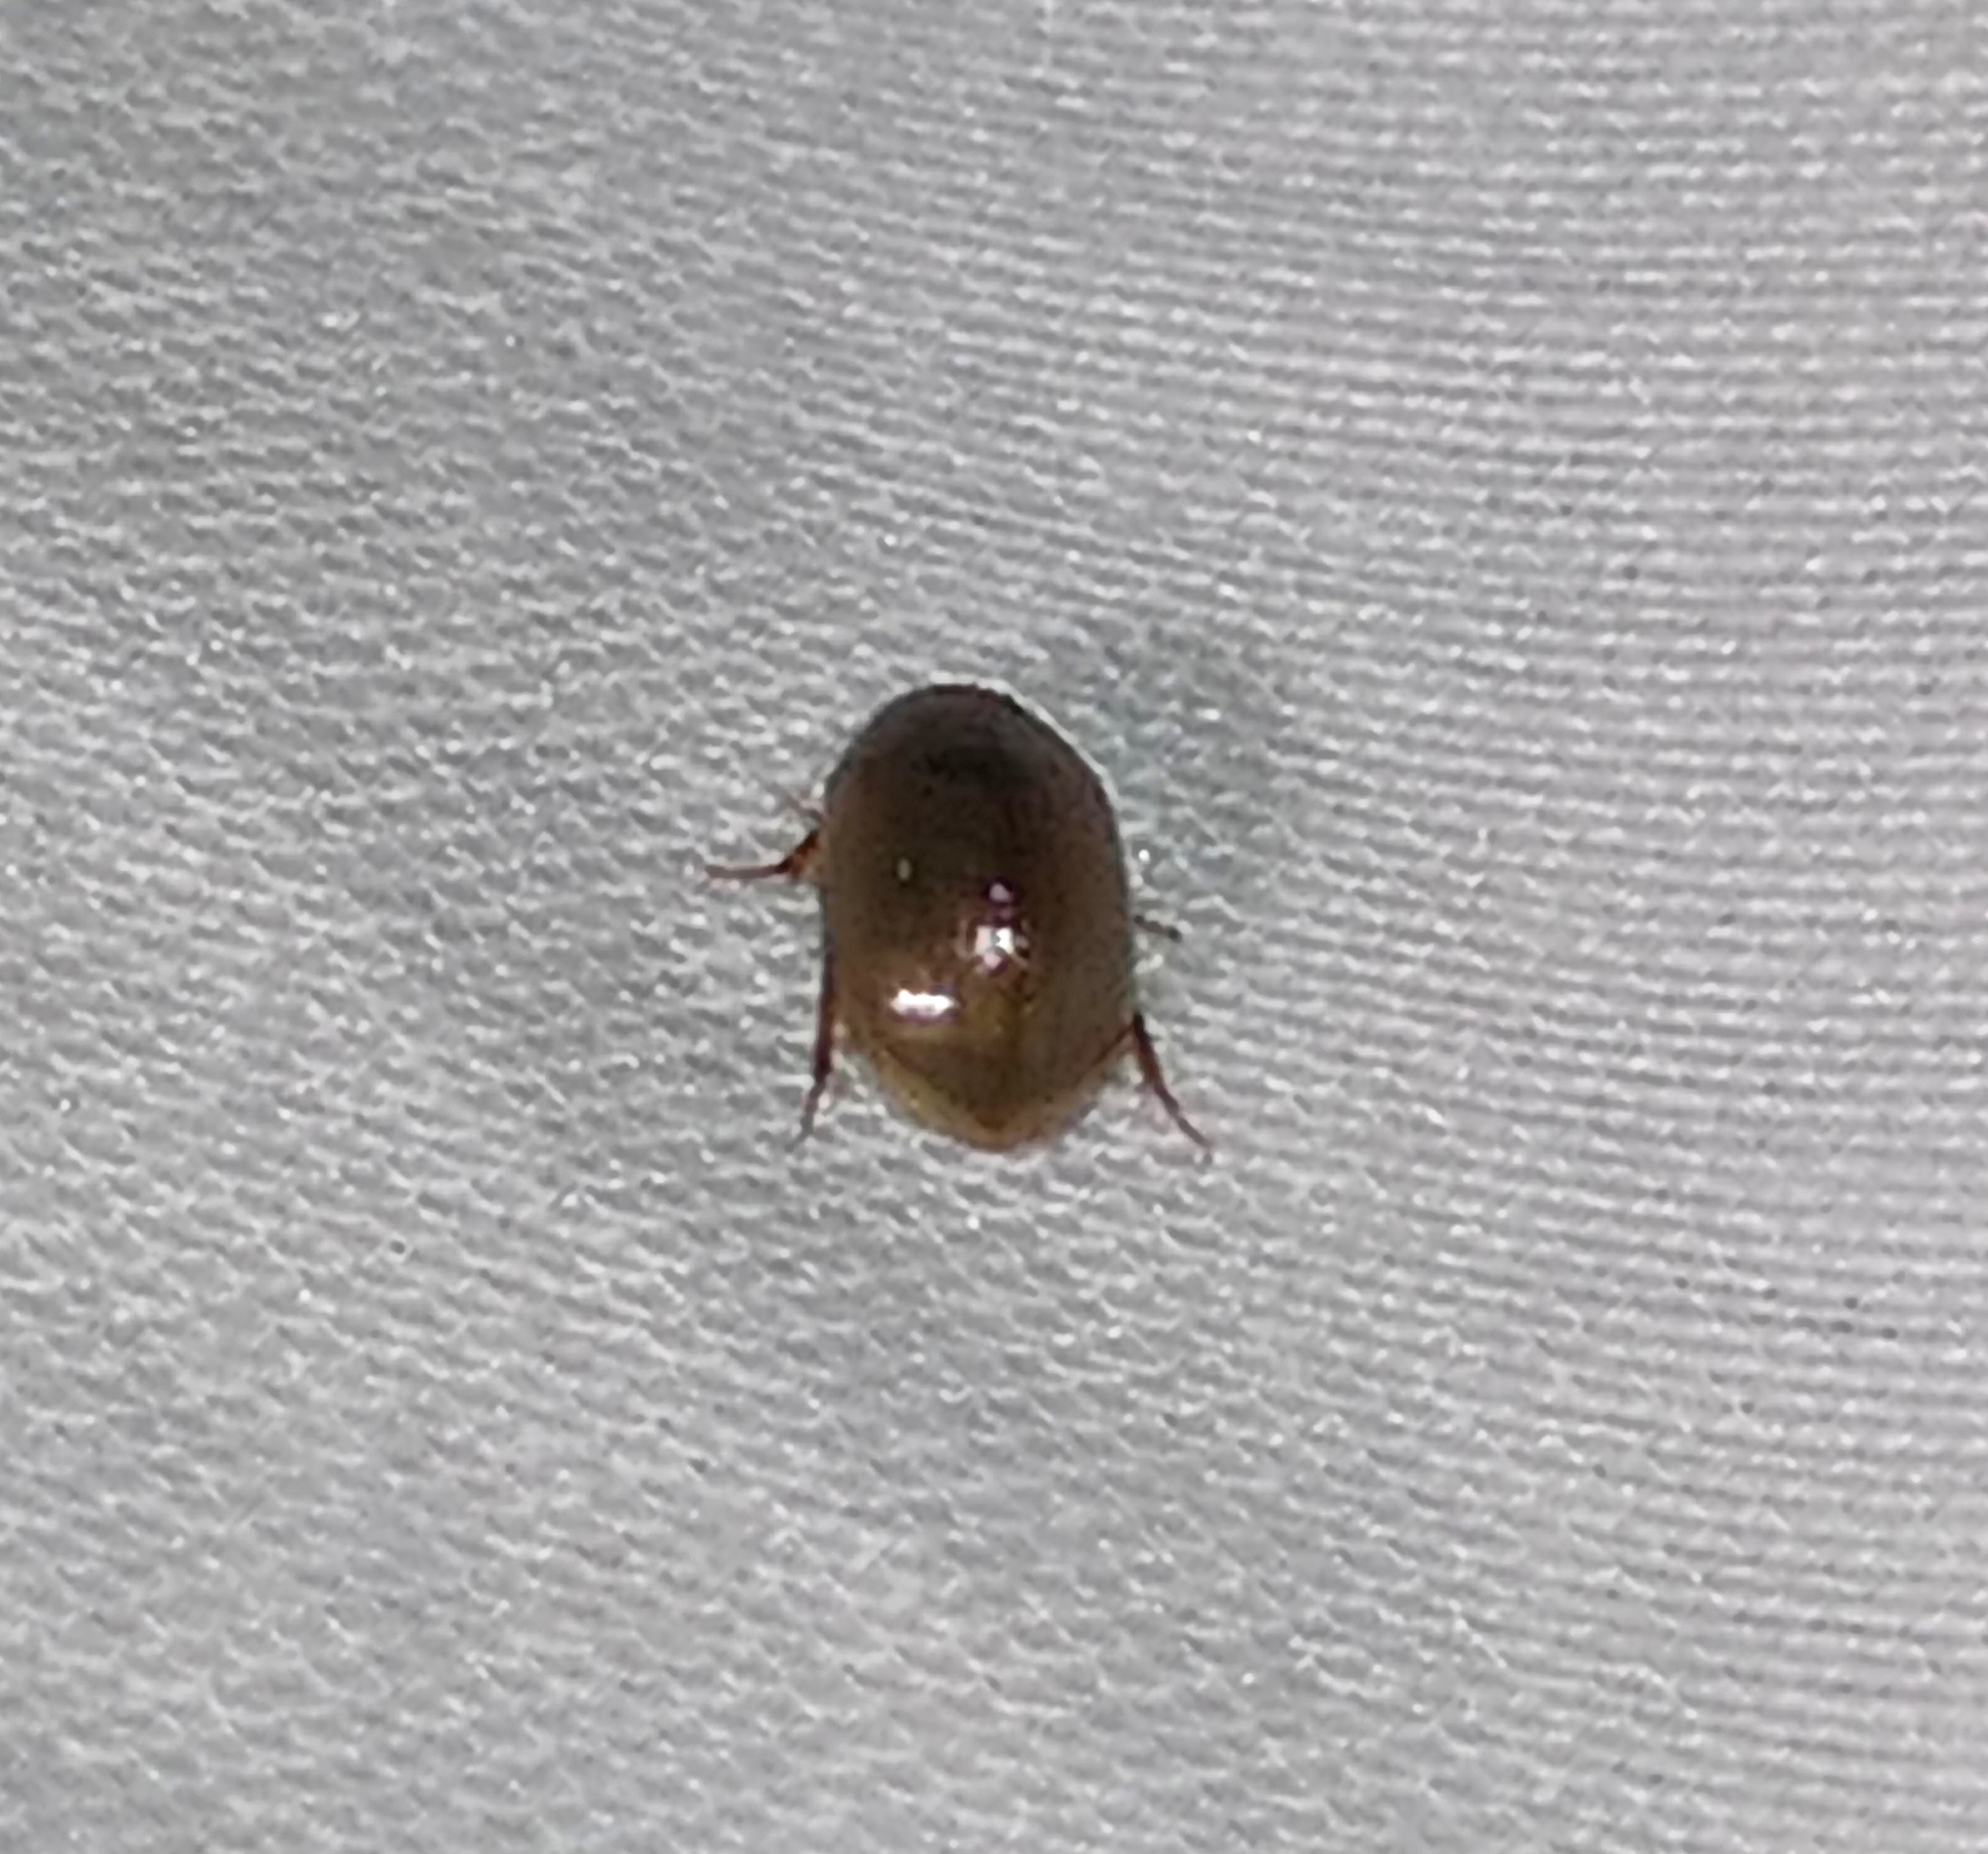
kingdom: Animalia
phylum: Arthropoda
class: Insecta
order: Coleoptera
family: Hydrophilidae
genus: Enochrus
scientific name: Enochrus
